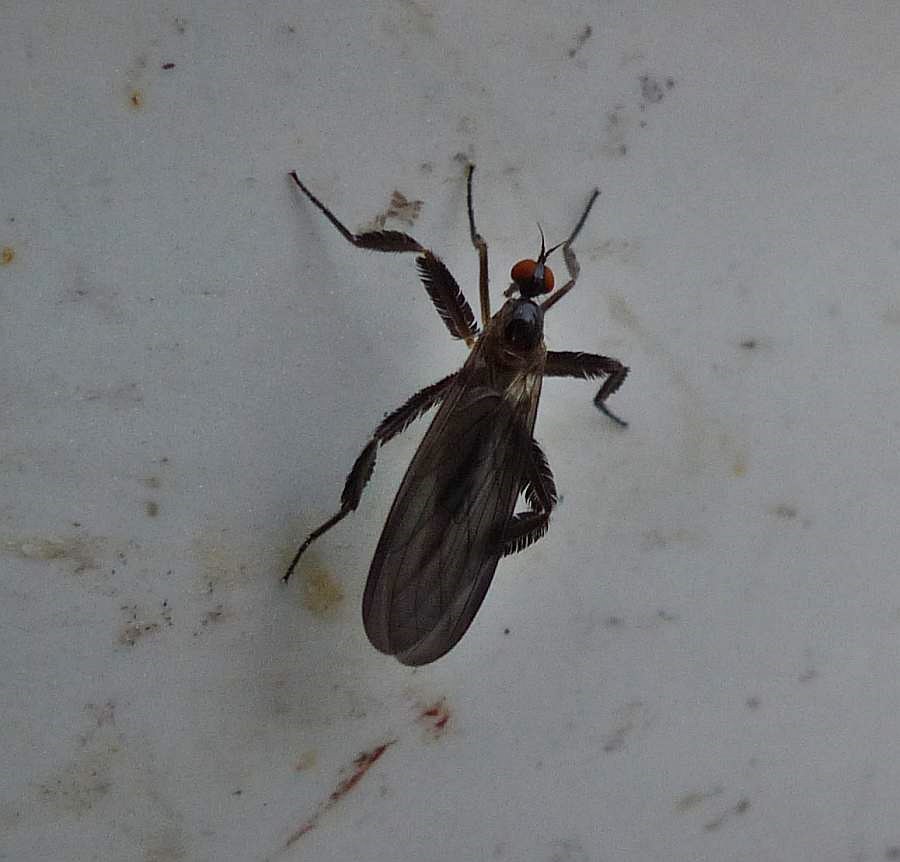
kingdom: Animalia
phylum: Arthropoda
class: Insecta
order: Diptera
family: Empididae
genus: Rhamphomyia
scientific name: Rhamphomyia longicauda
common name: Long-tailed dance fly
